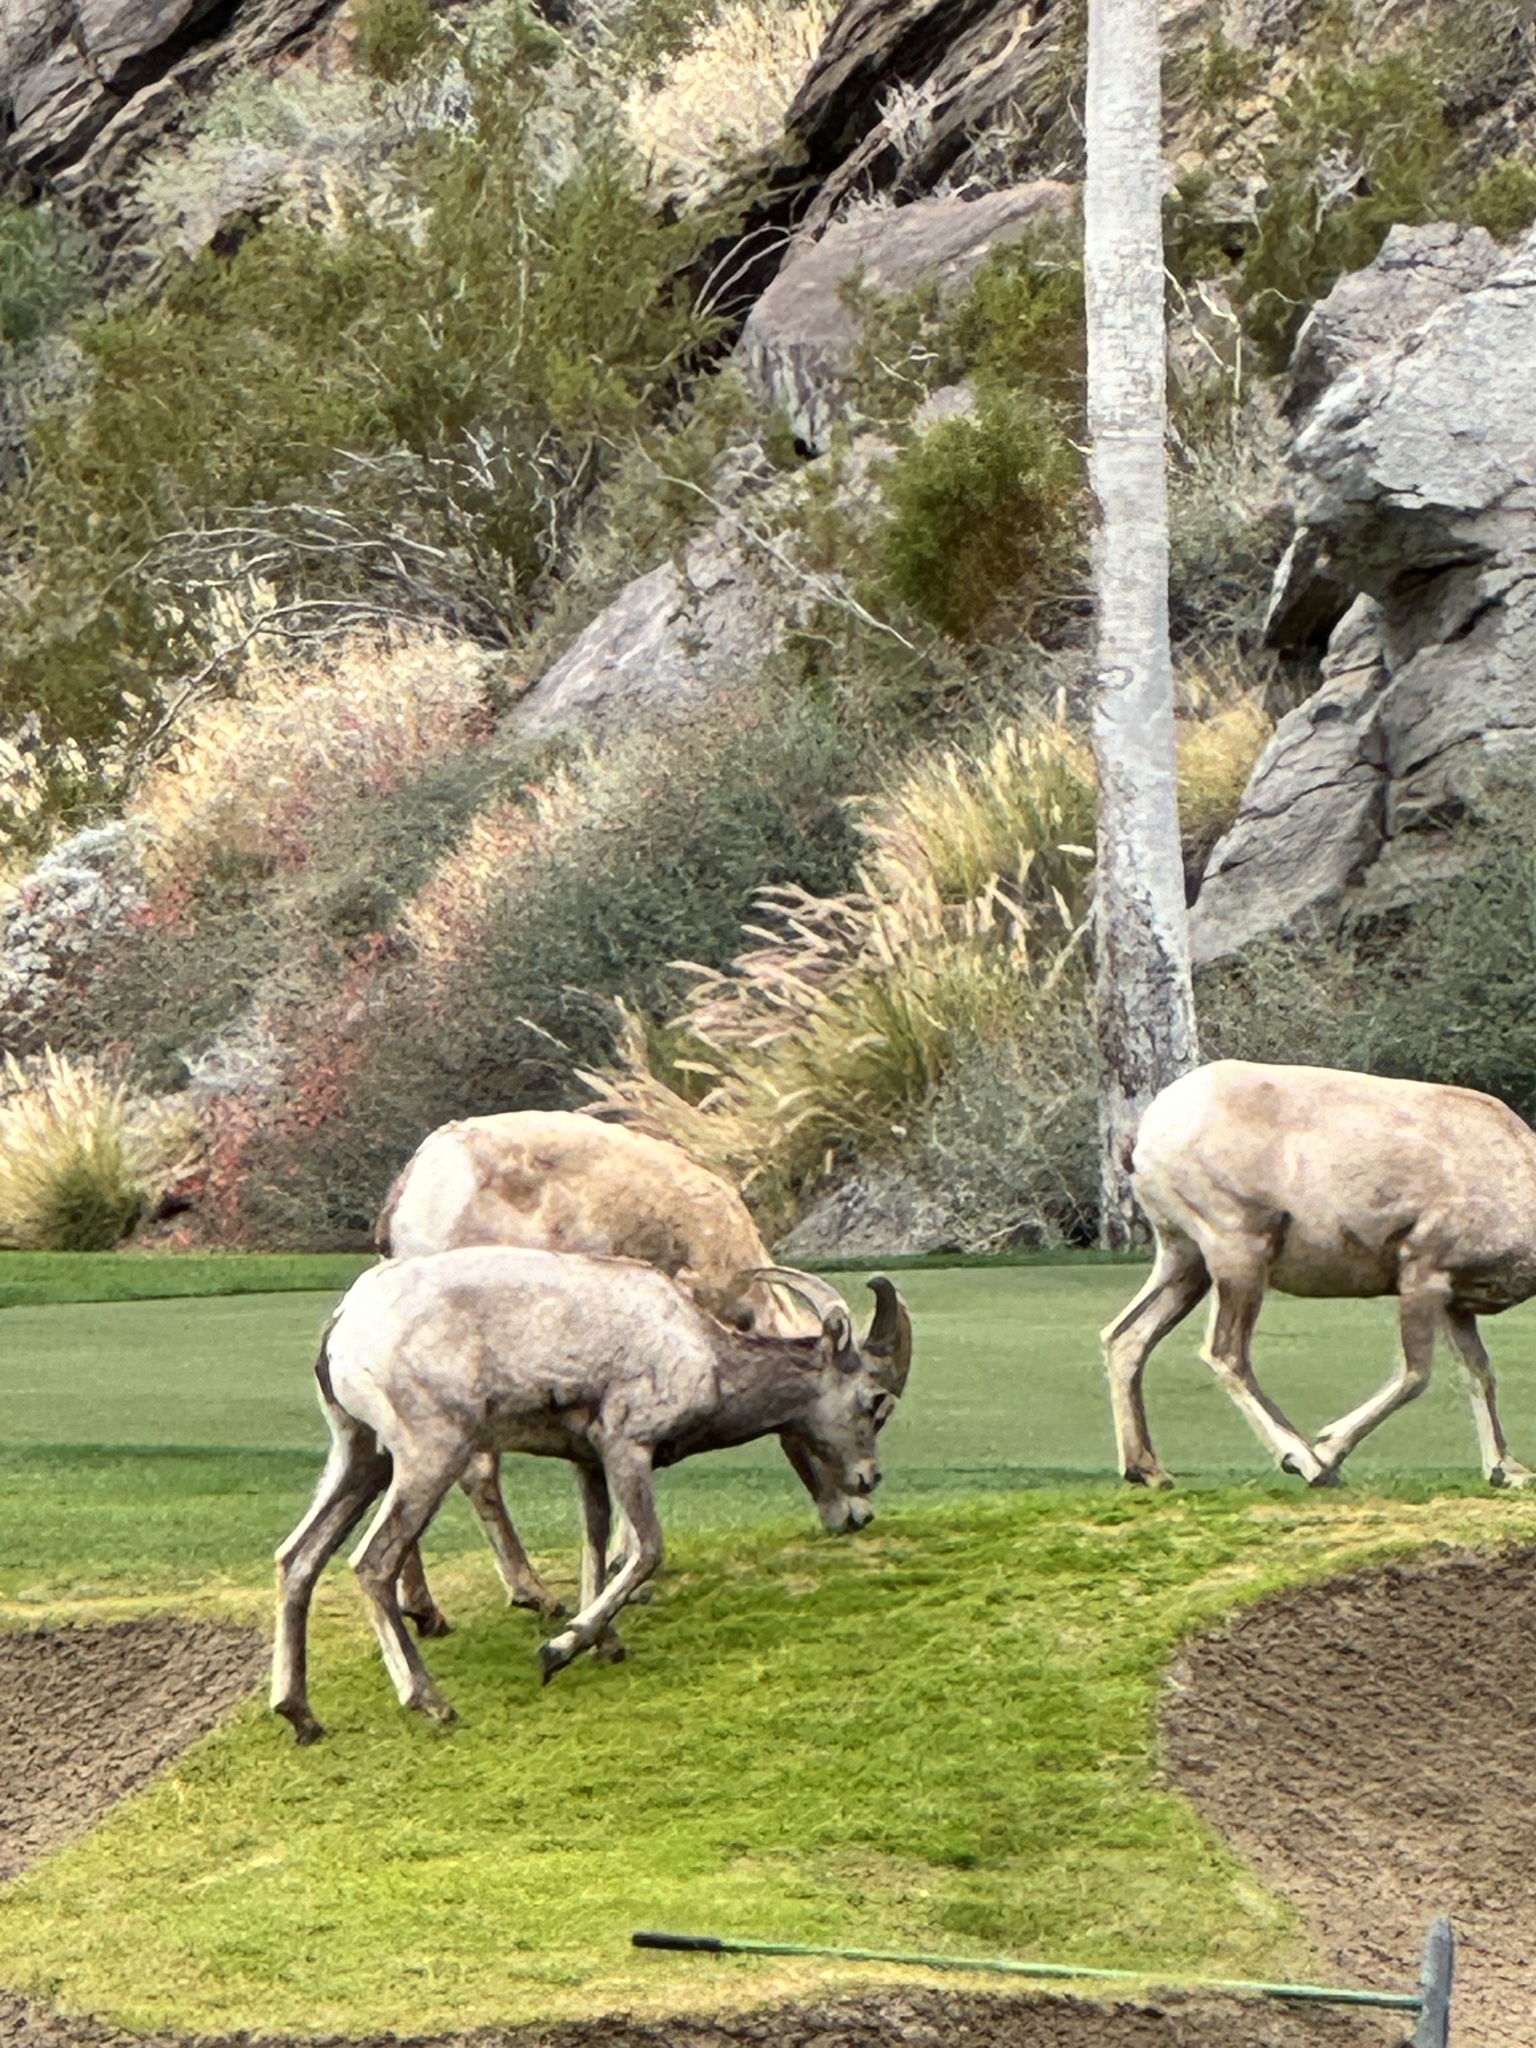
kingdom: Animalia
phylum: Chordata
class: Mammalia
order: Artiodactyla
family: Bovidae
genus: Ovis
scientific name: Ovis canadensis
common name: Bighorn sheep
